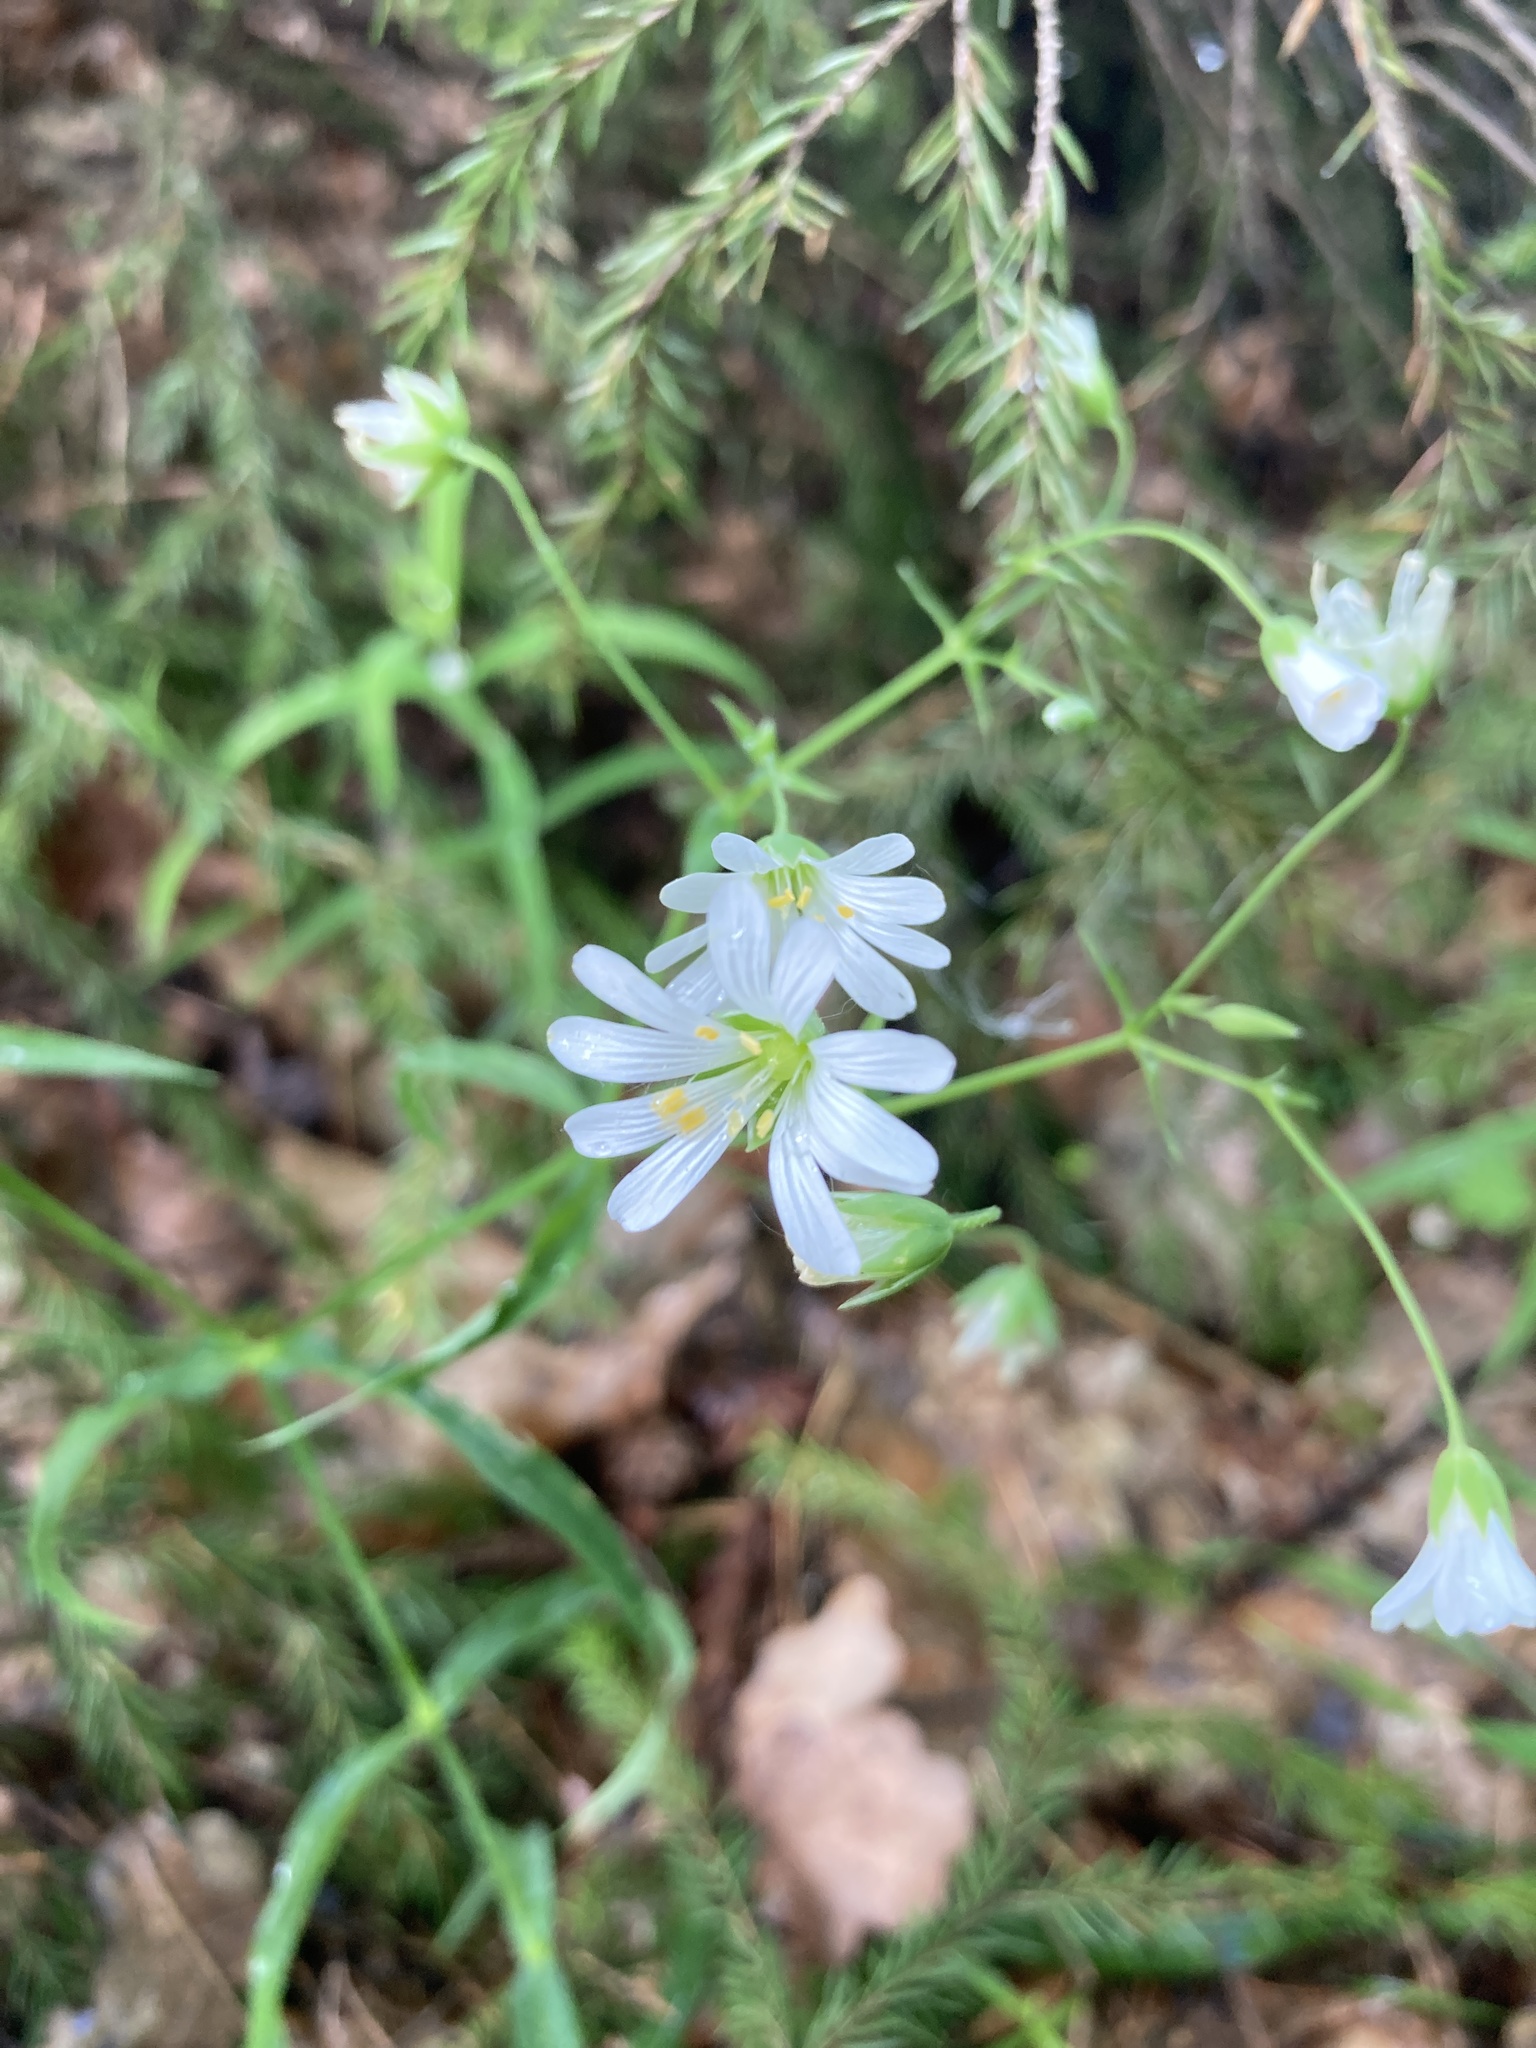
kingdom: Plantae
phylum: Tracheophyta
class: Magnoliopsida
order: Caryophyllales
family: Caryophyllaceae
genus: Rabelera
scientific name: Rabelera holostea
